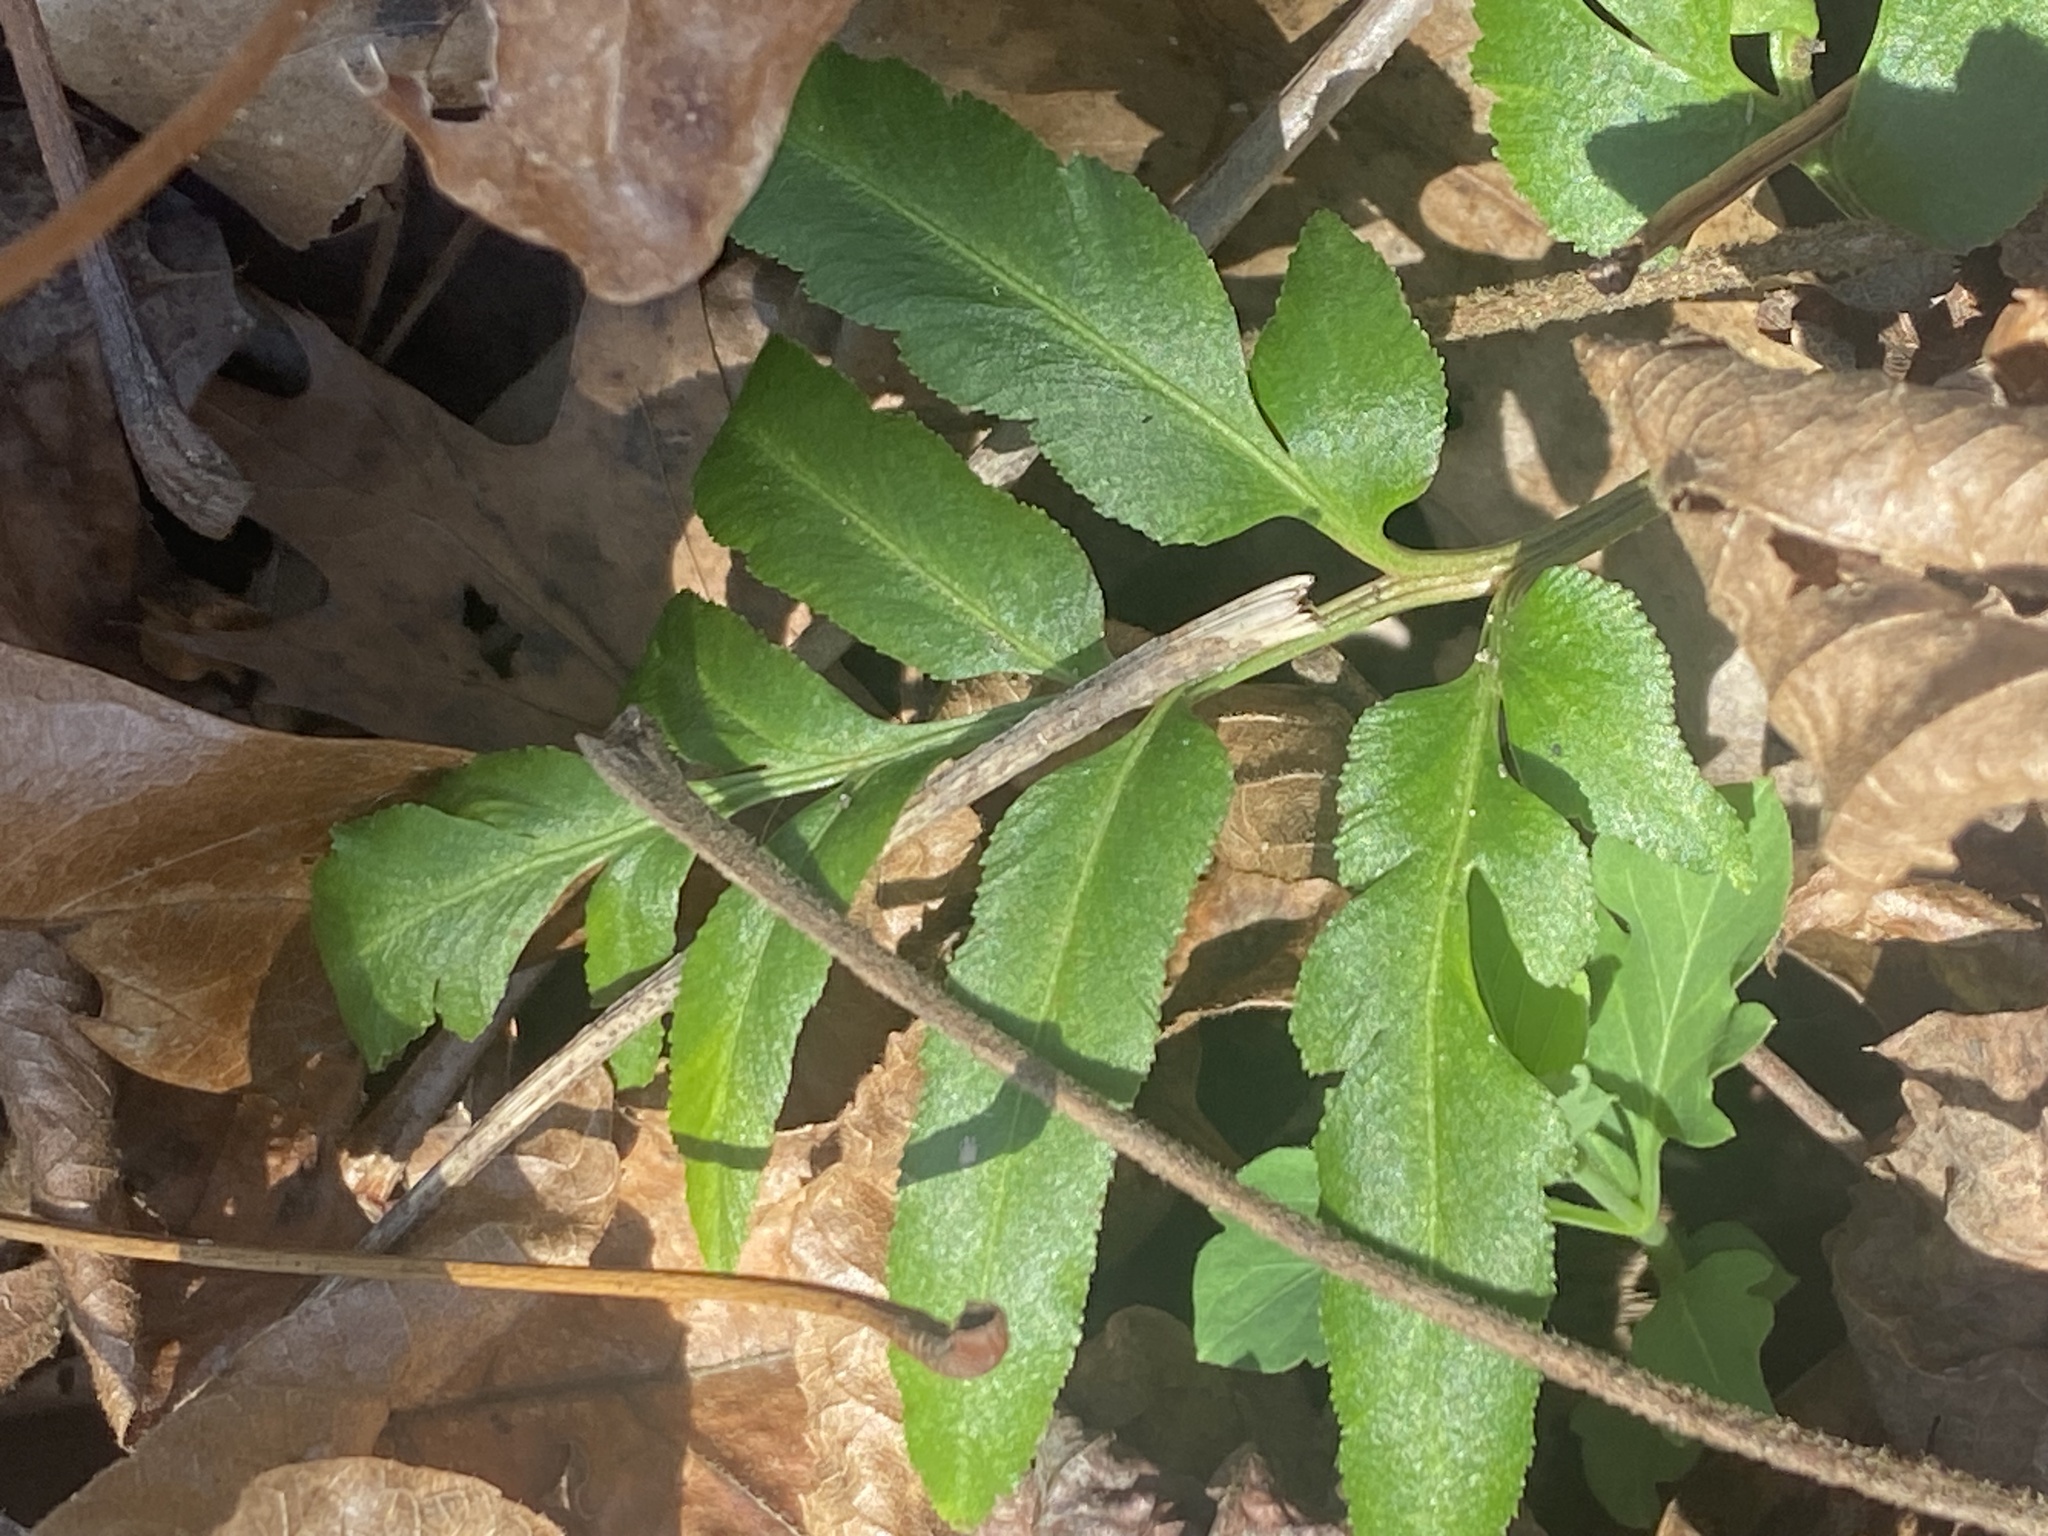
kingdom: Plantae
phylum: Tracheophyta
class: Polypodiopsida
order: Ophioglossales
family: Ophioglossaceae
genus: Sceptridium
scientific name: Sceptridium biternatum
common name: Sparse-lobed grapefern
